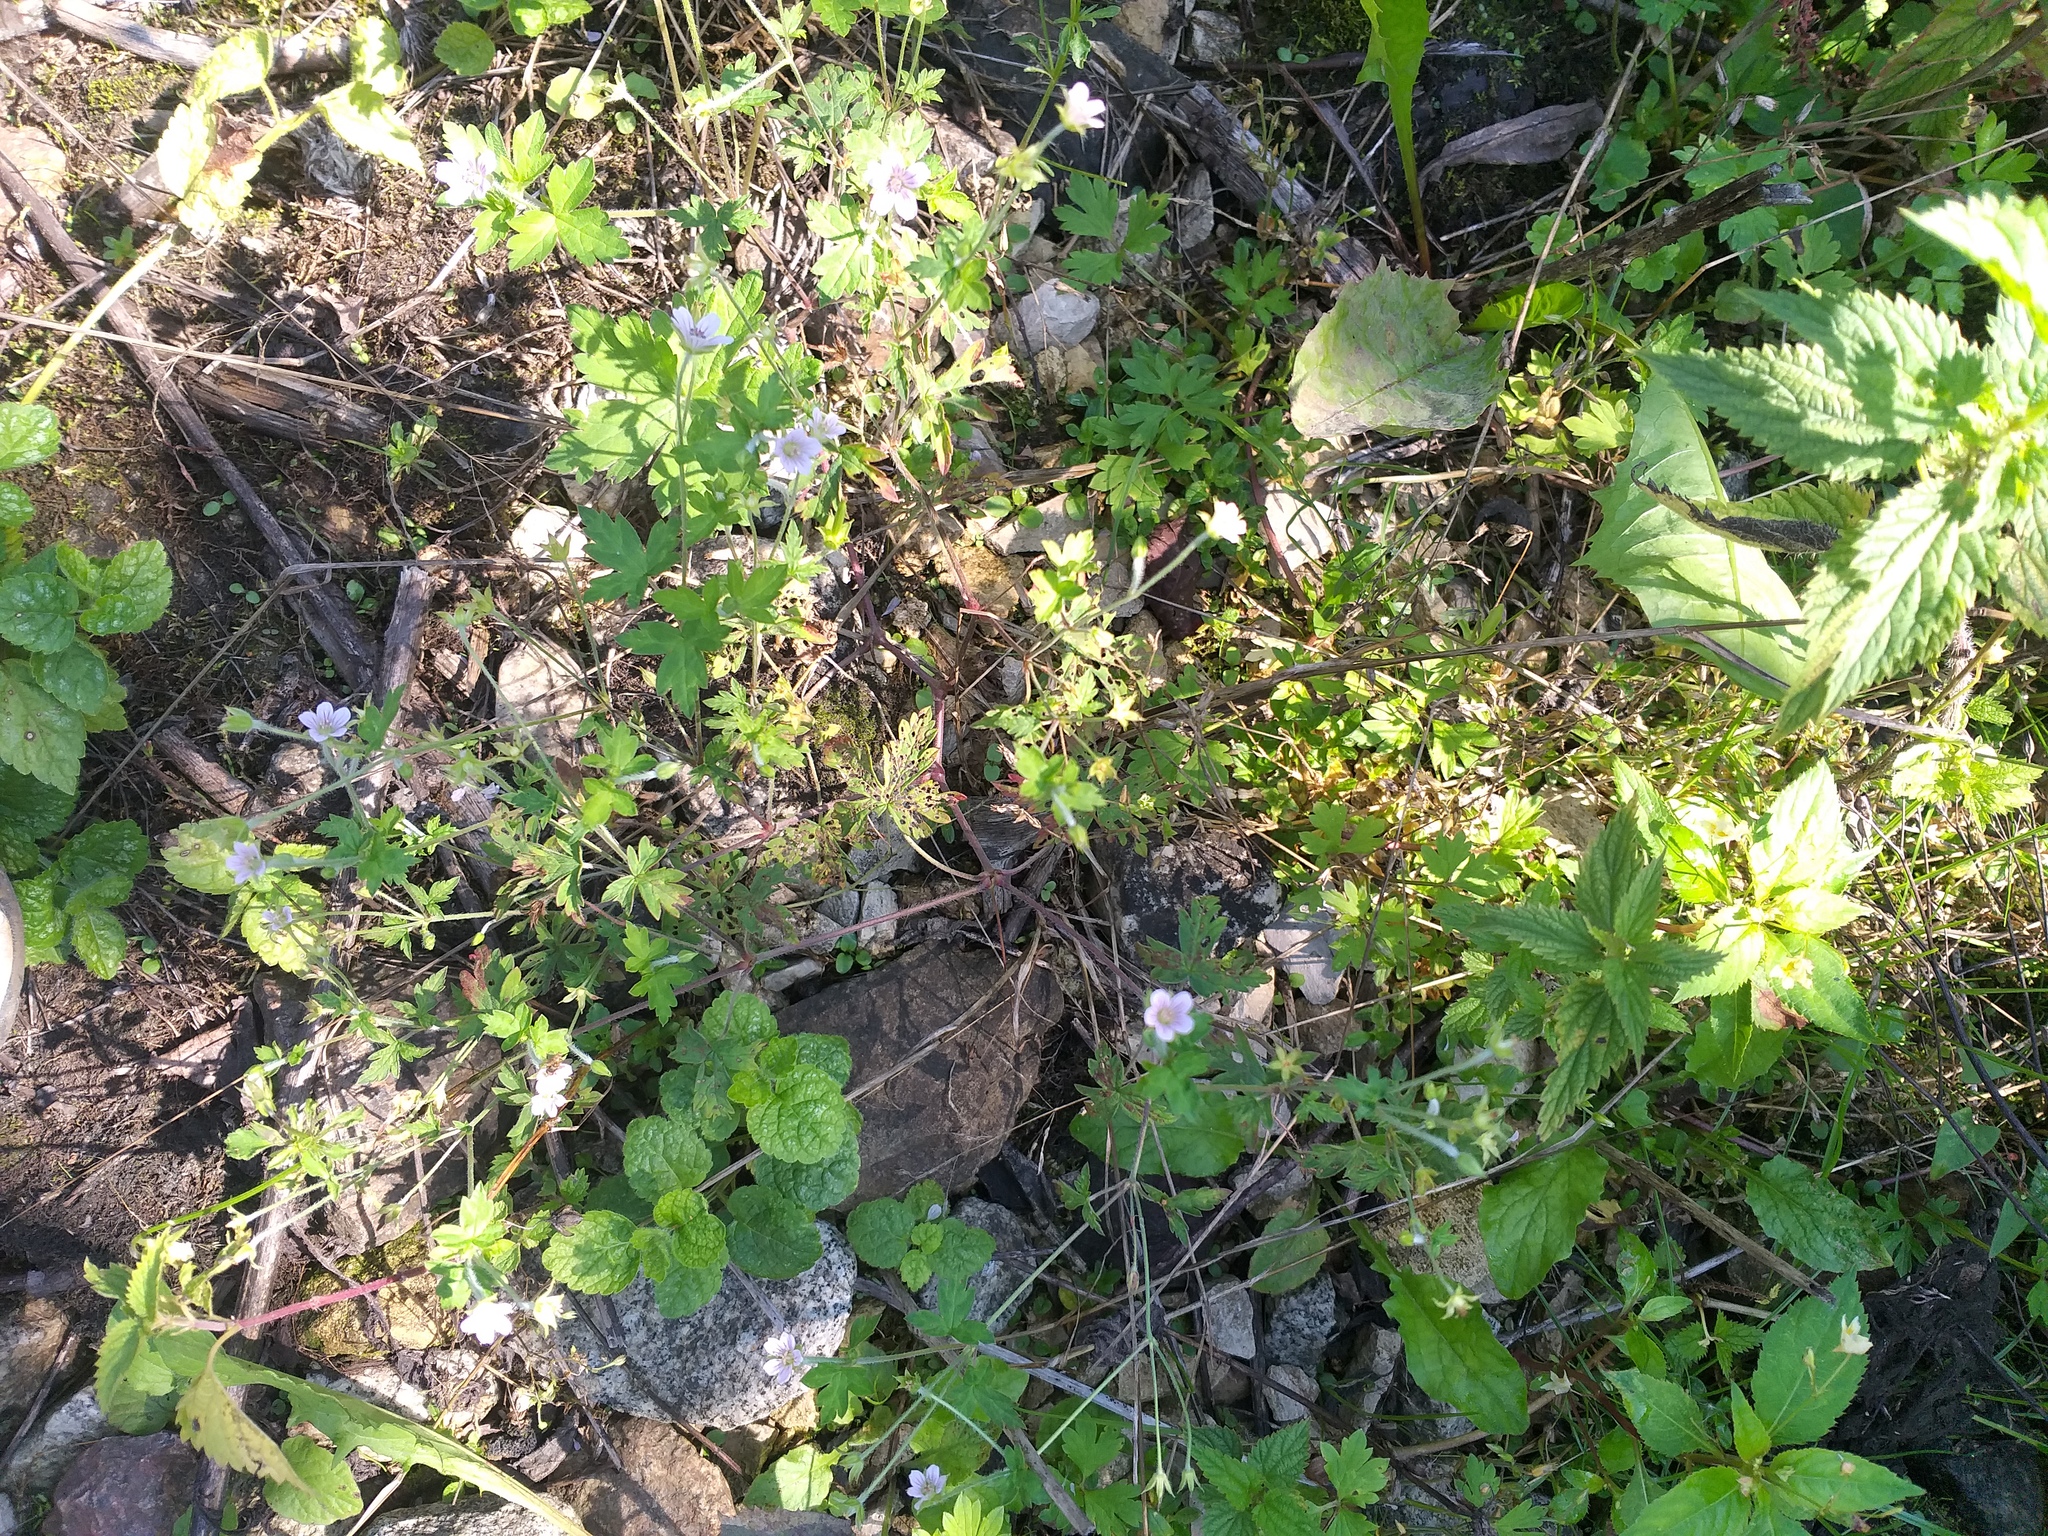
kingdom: Plantae
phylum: Tracheophyta
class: Magnoliopsida
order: Geraniales
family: Geraniaceae
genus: Geranium
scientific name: Geranium sibiricum
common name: Siberian crane's-bill
